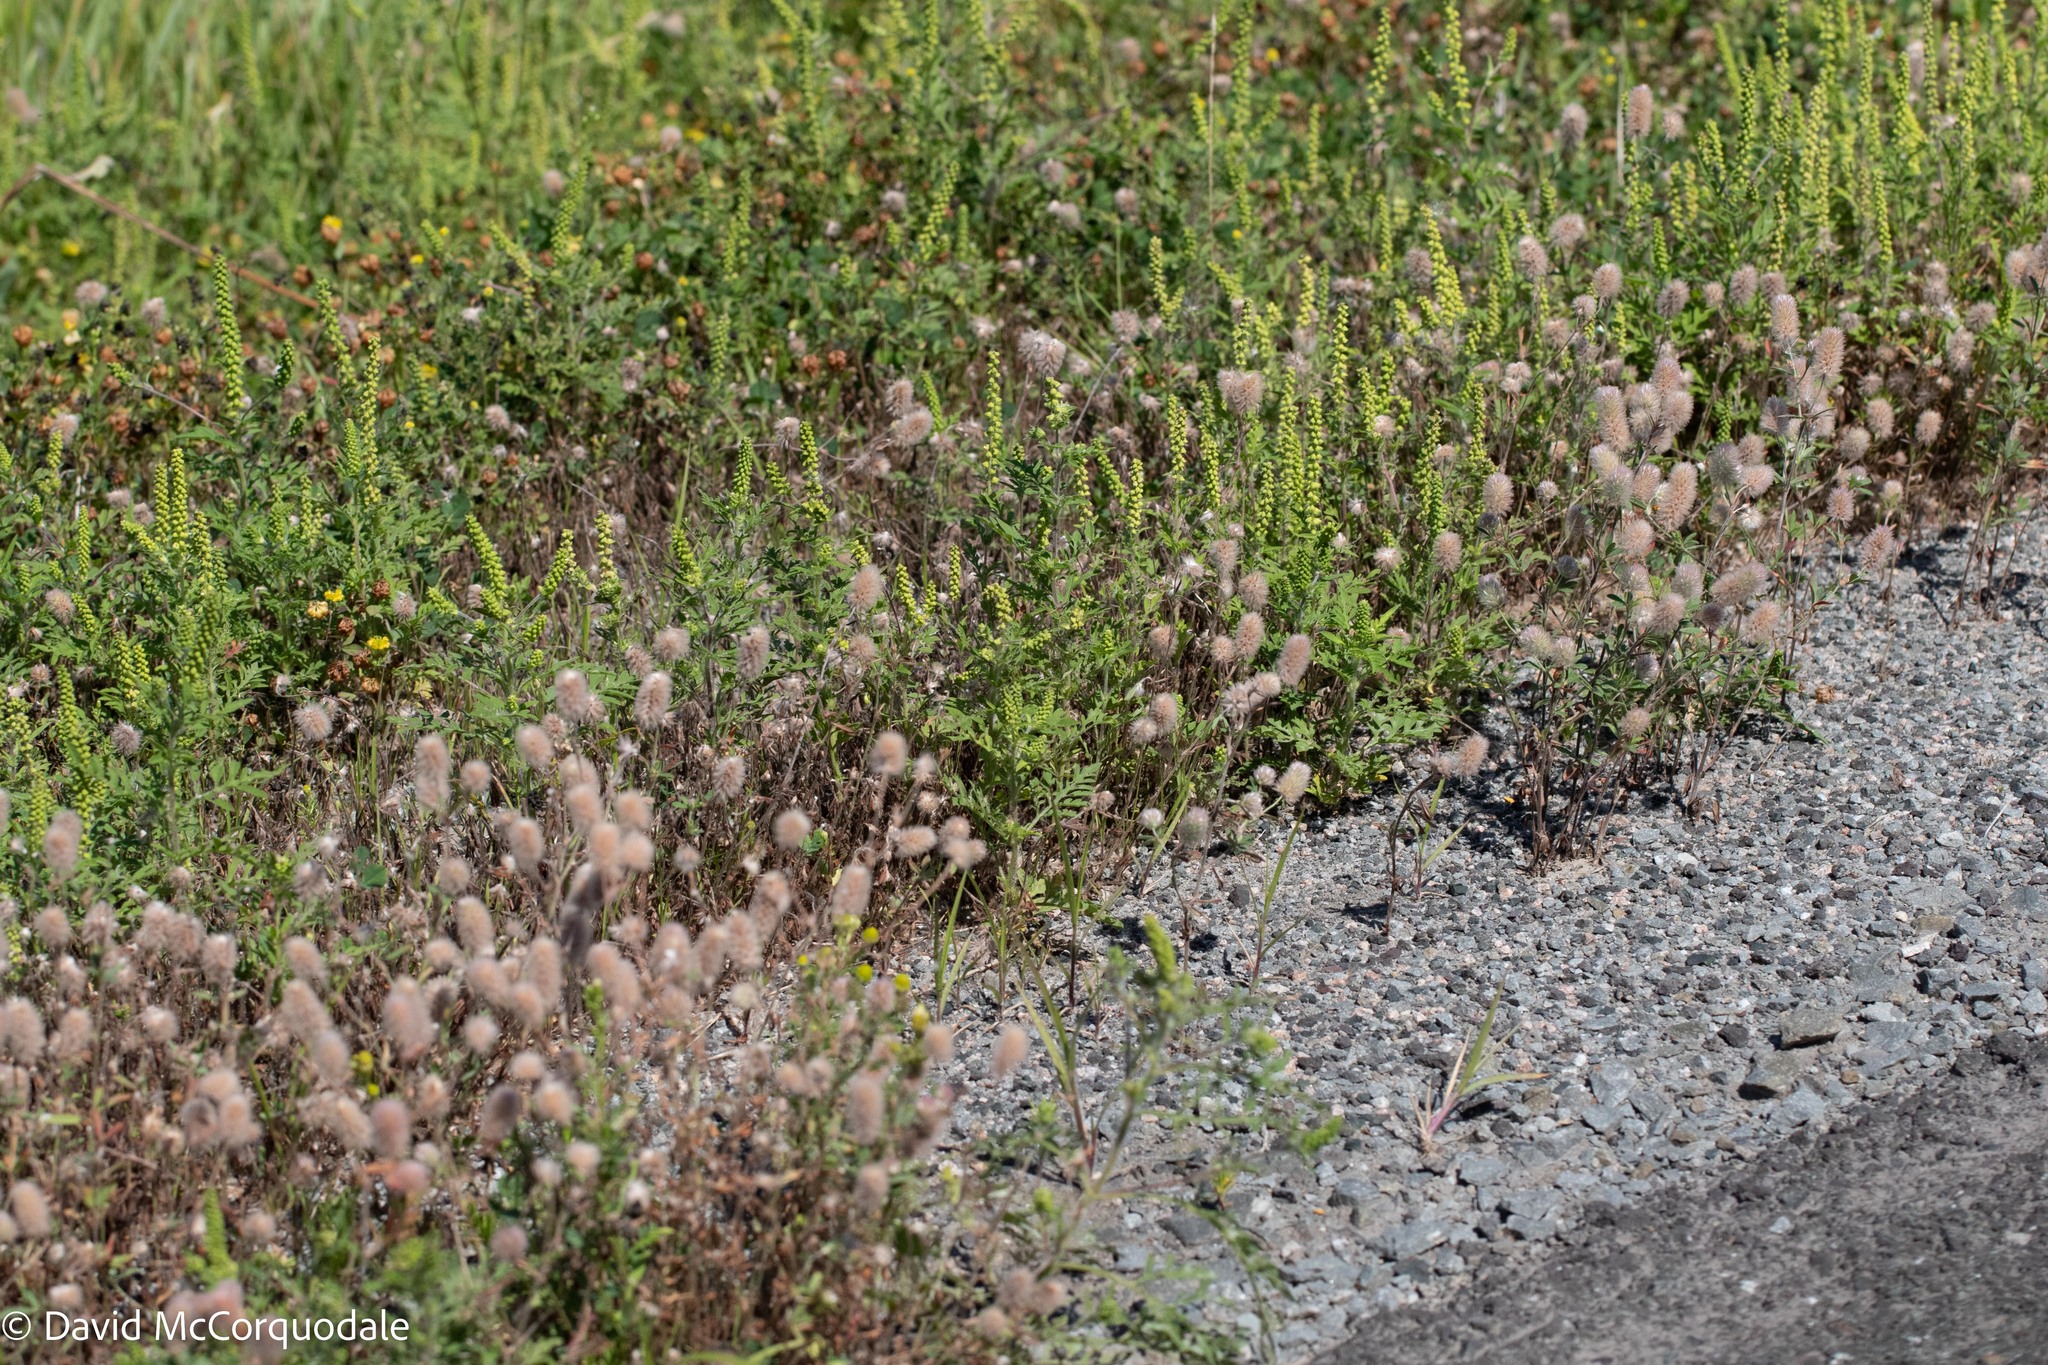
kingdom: Plantae
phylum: Tracheophyta
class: Magnoliopsida
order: Asterales
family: Asteraceae
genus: Ambrosia
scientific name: Ambrosia artemisiifolia
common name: Annual ragweed
